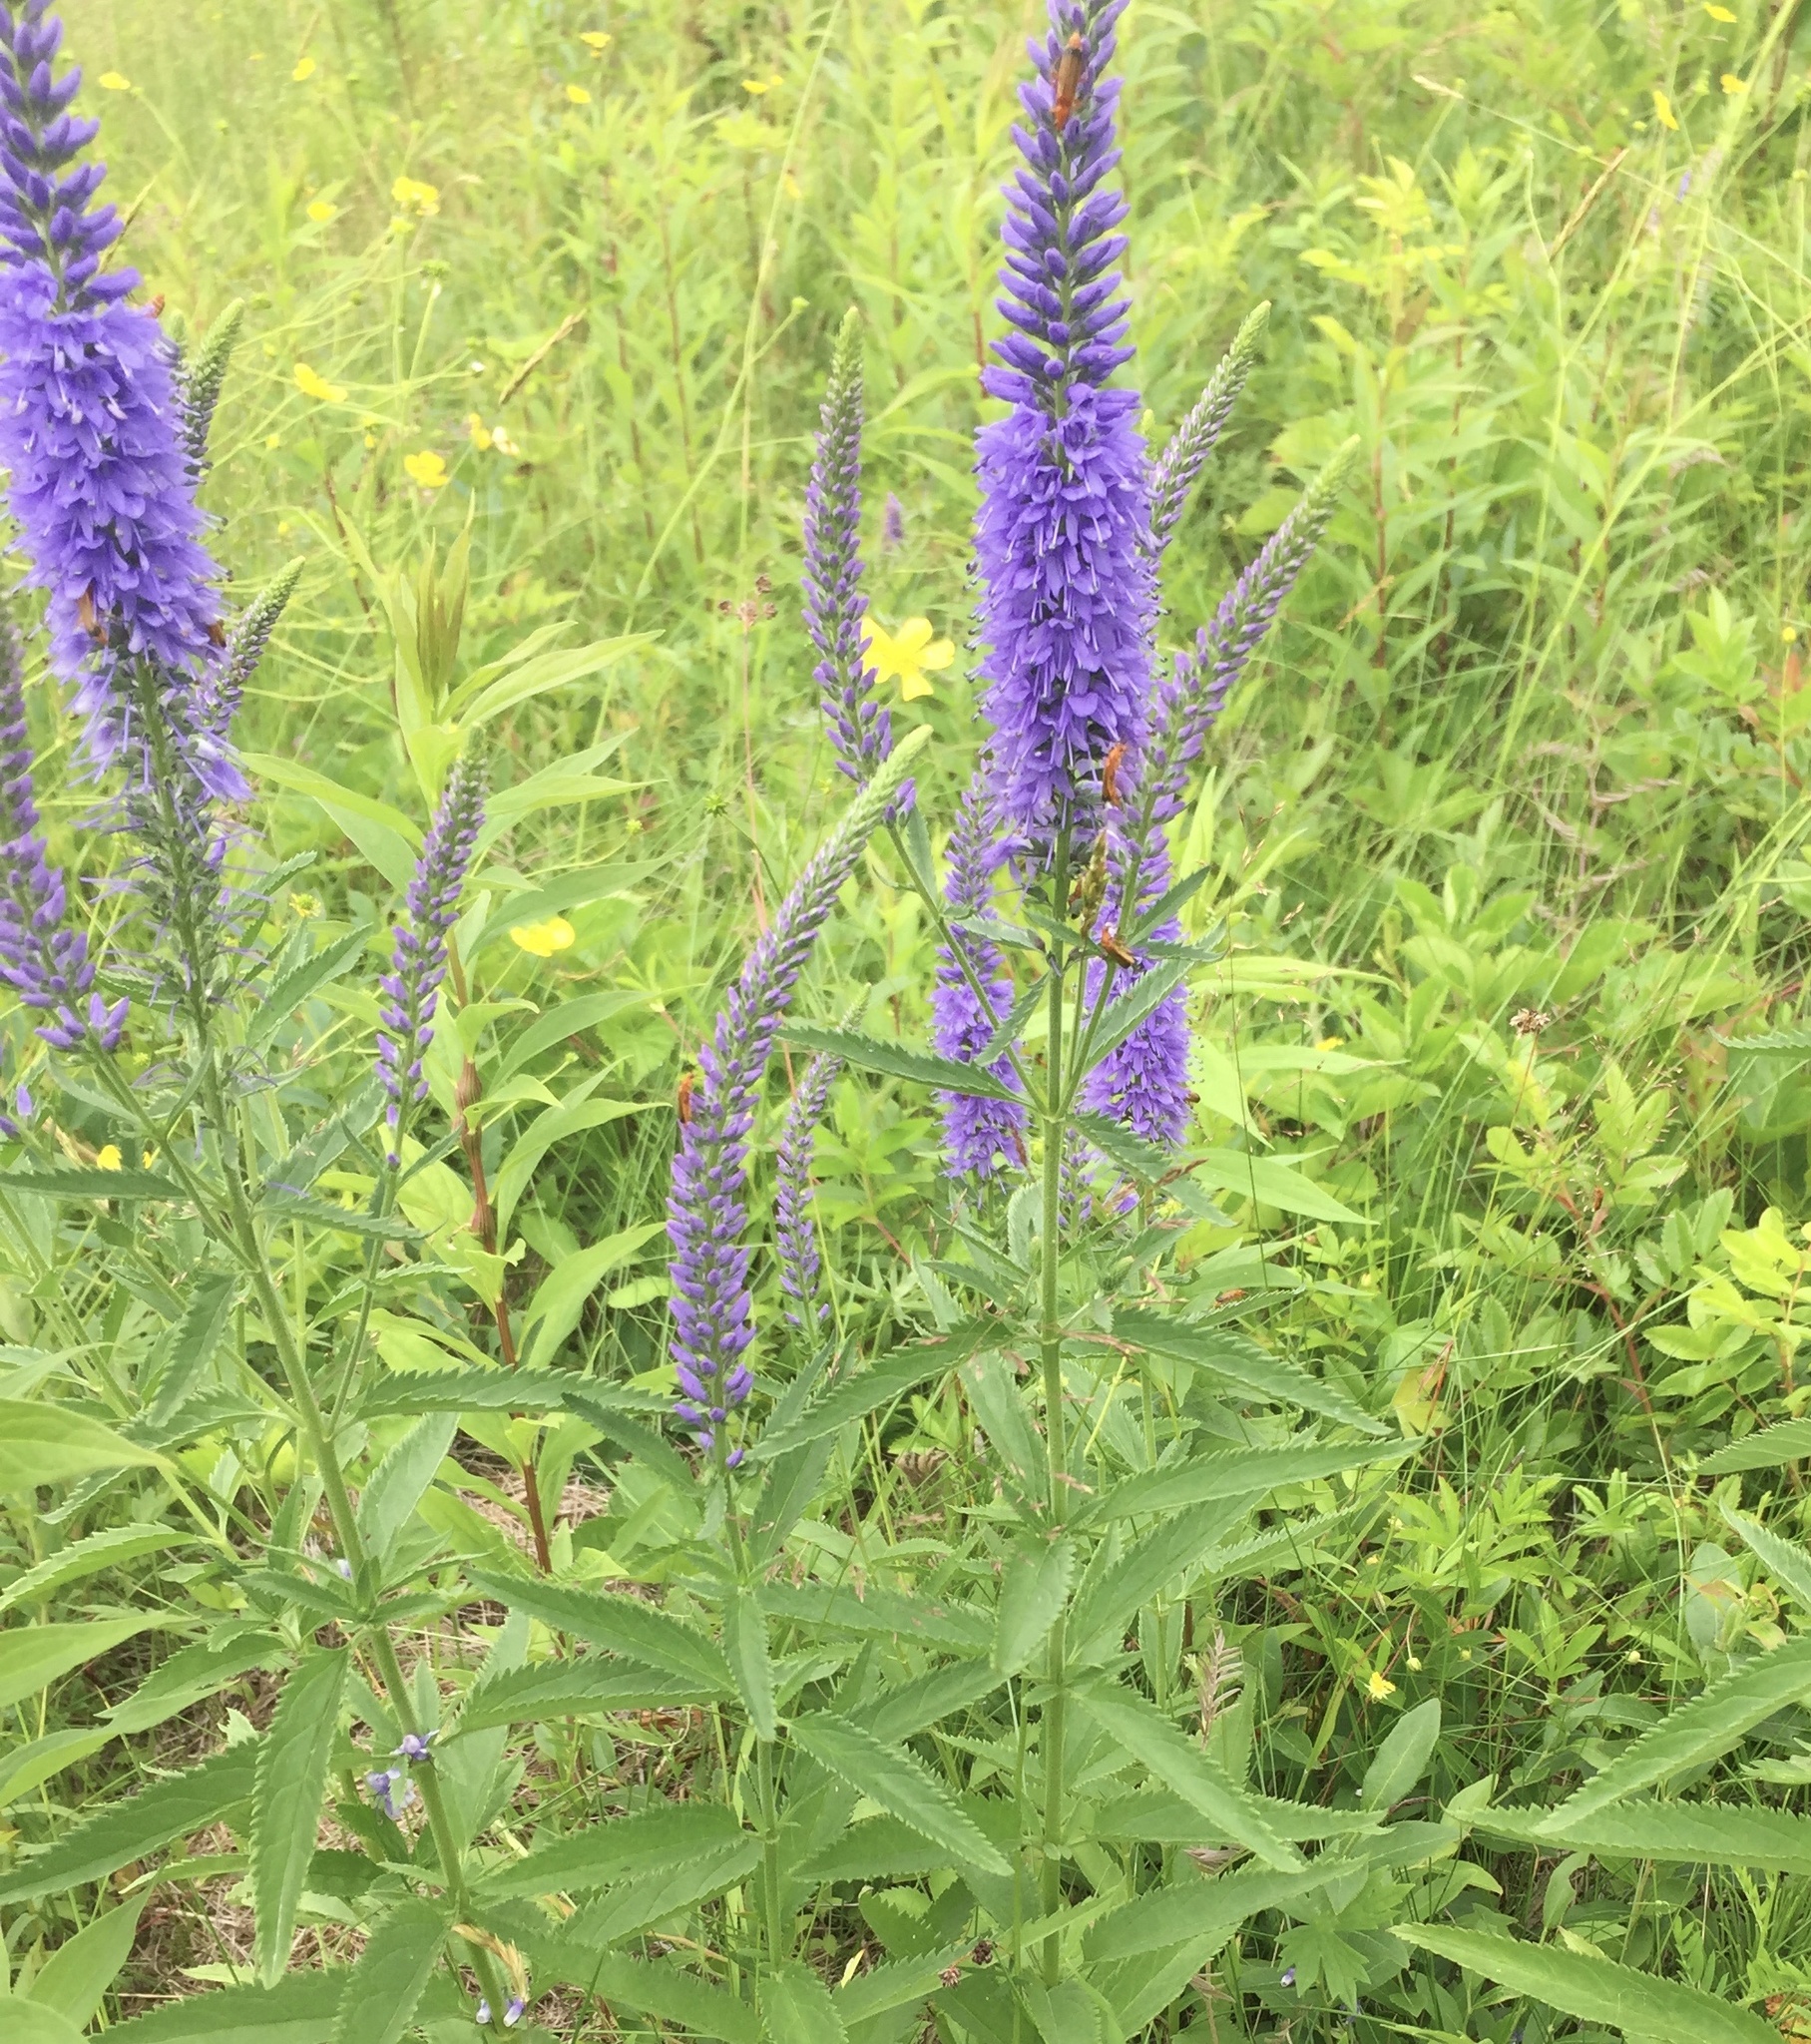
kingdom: Plantae
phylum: Tracheophyta
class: Magnoliopsida
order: Lamiales
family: Plantaginaceae
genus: Veronica
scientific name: Veronica longifolia
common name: Garden speedwell
